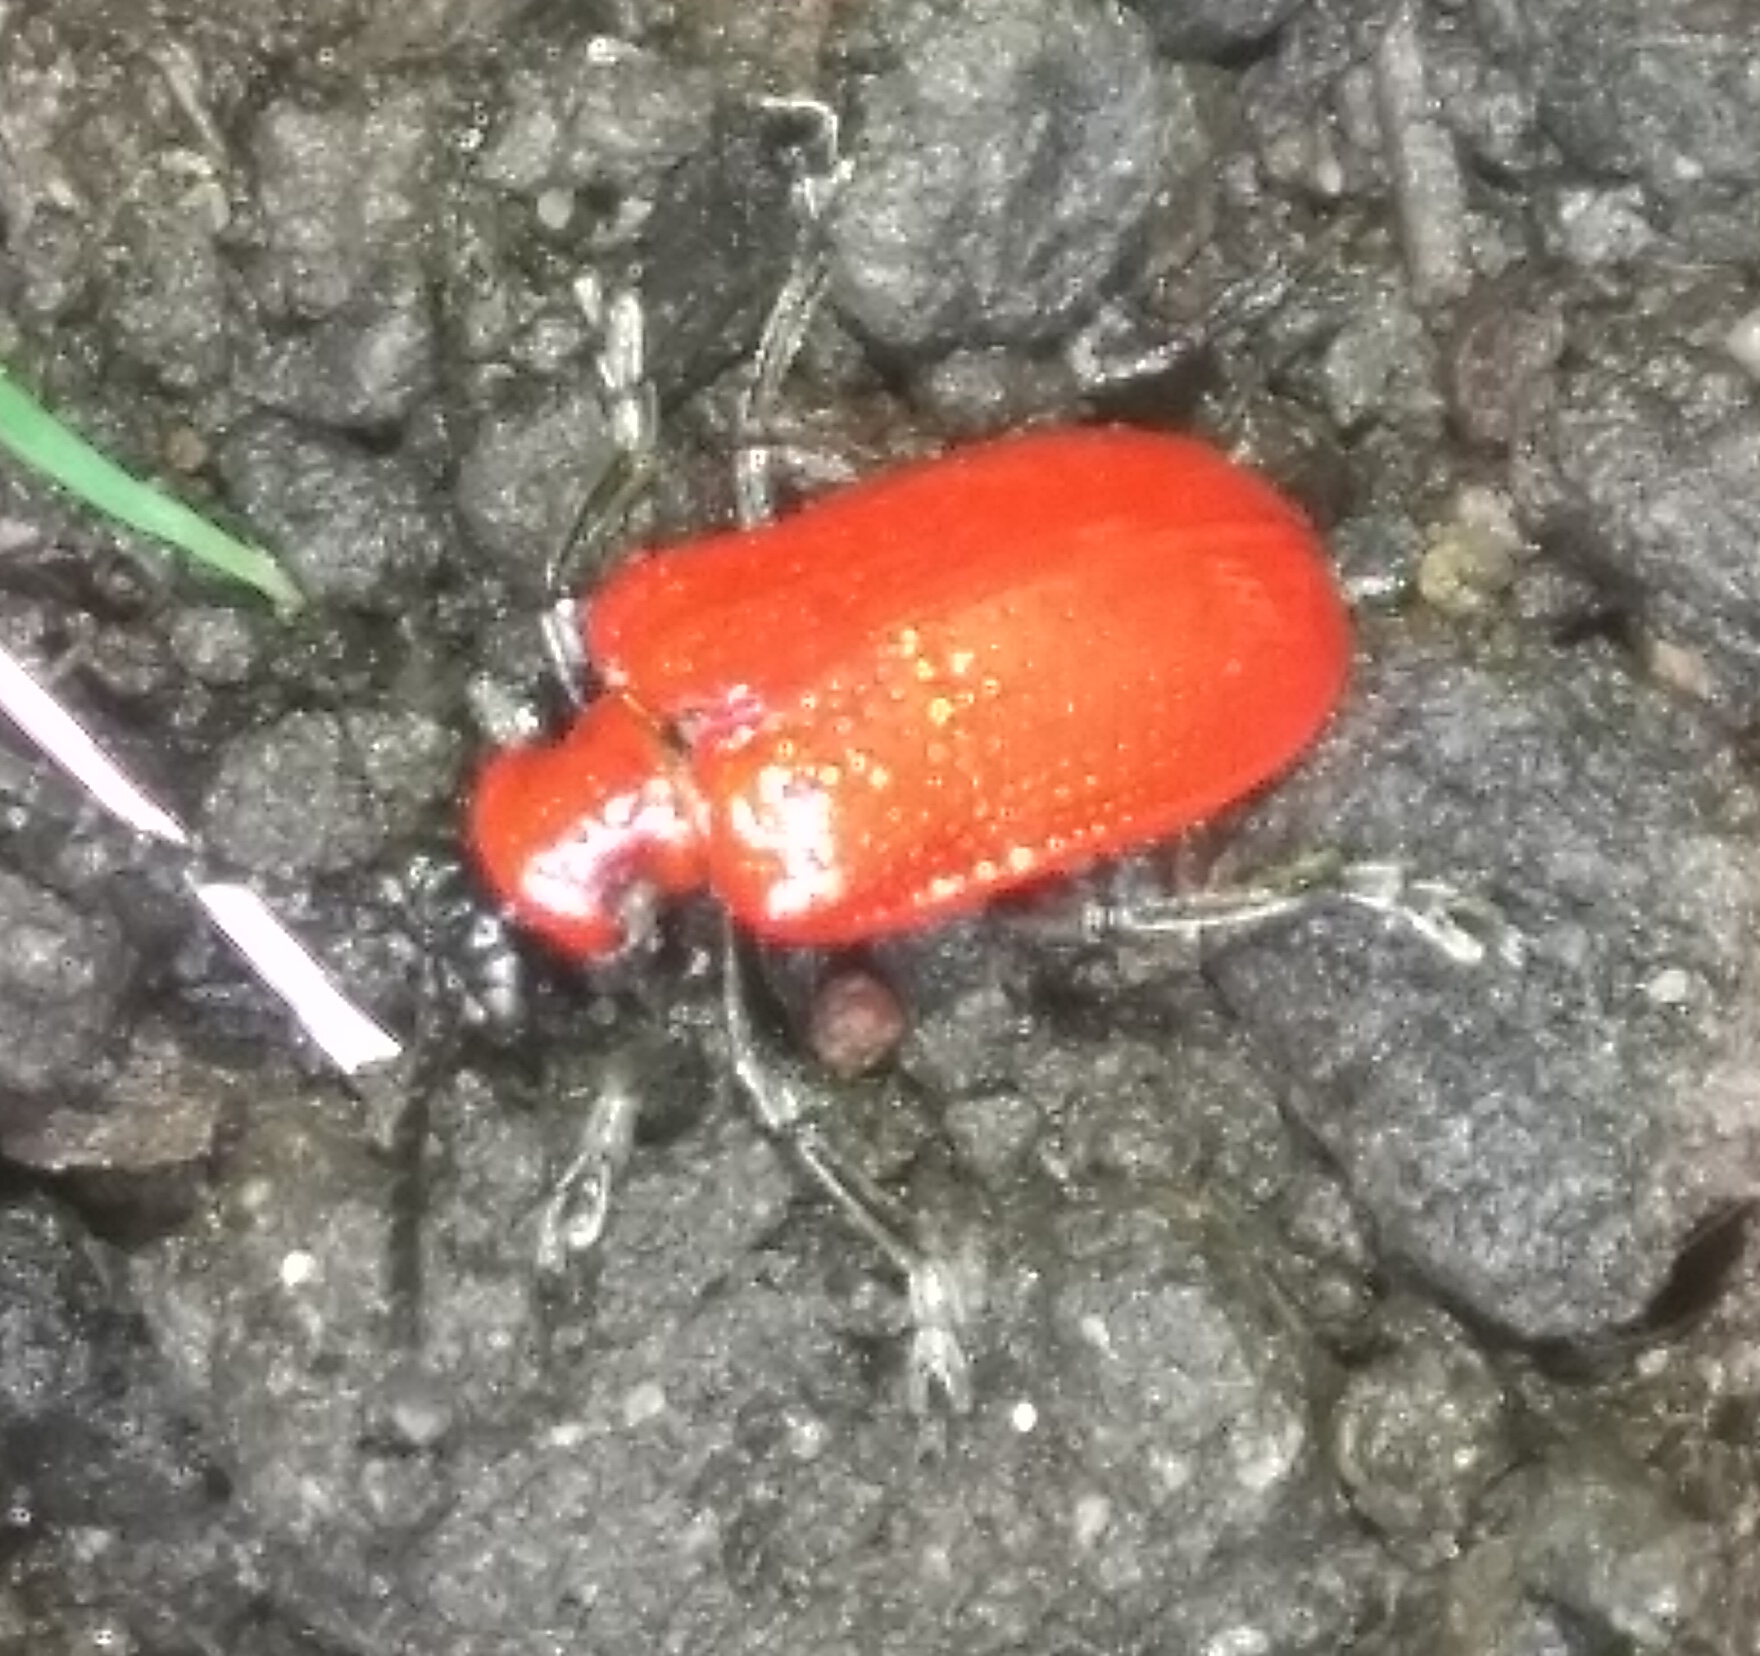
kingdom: Animalia
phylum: Arthropoda
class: Insecta
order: Coleoptera
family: Chrysomelidae
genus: Lilioceris
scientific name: Lilioceris lilii
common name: Lily beetle
